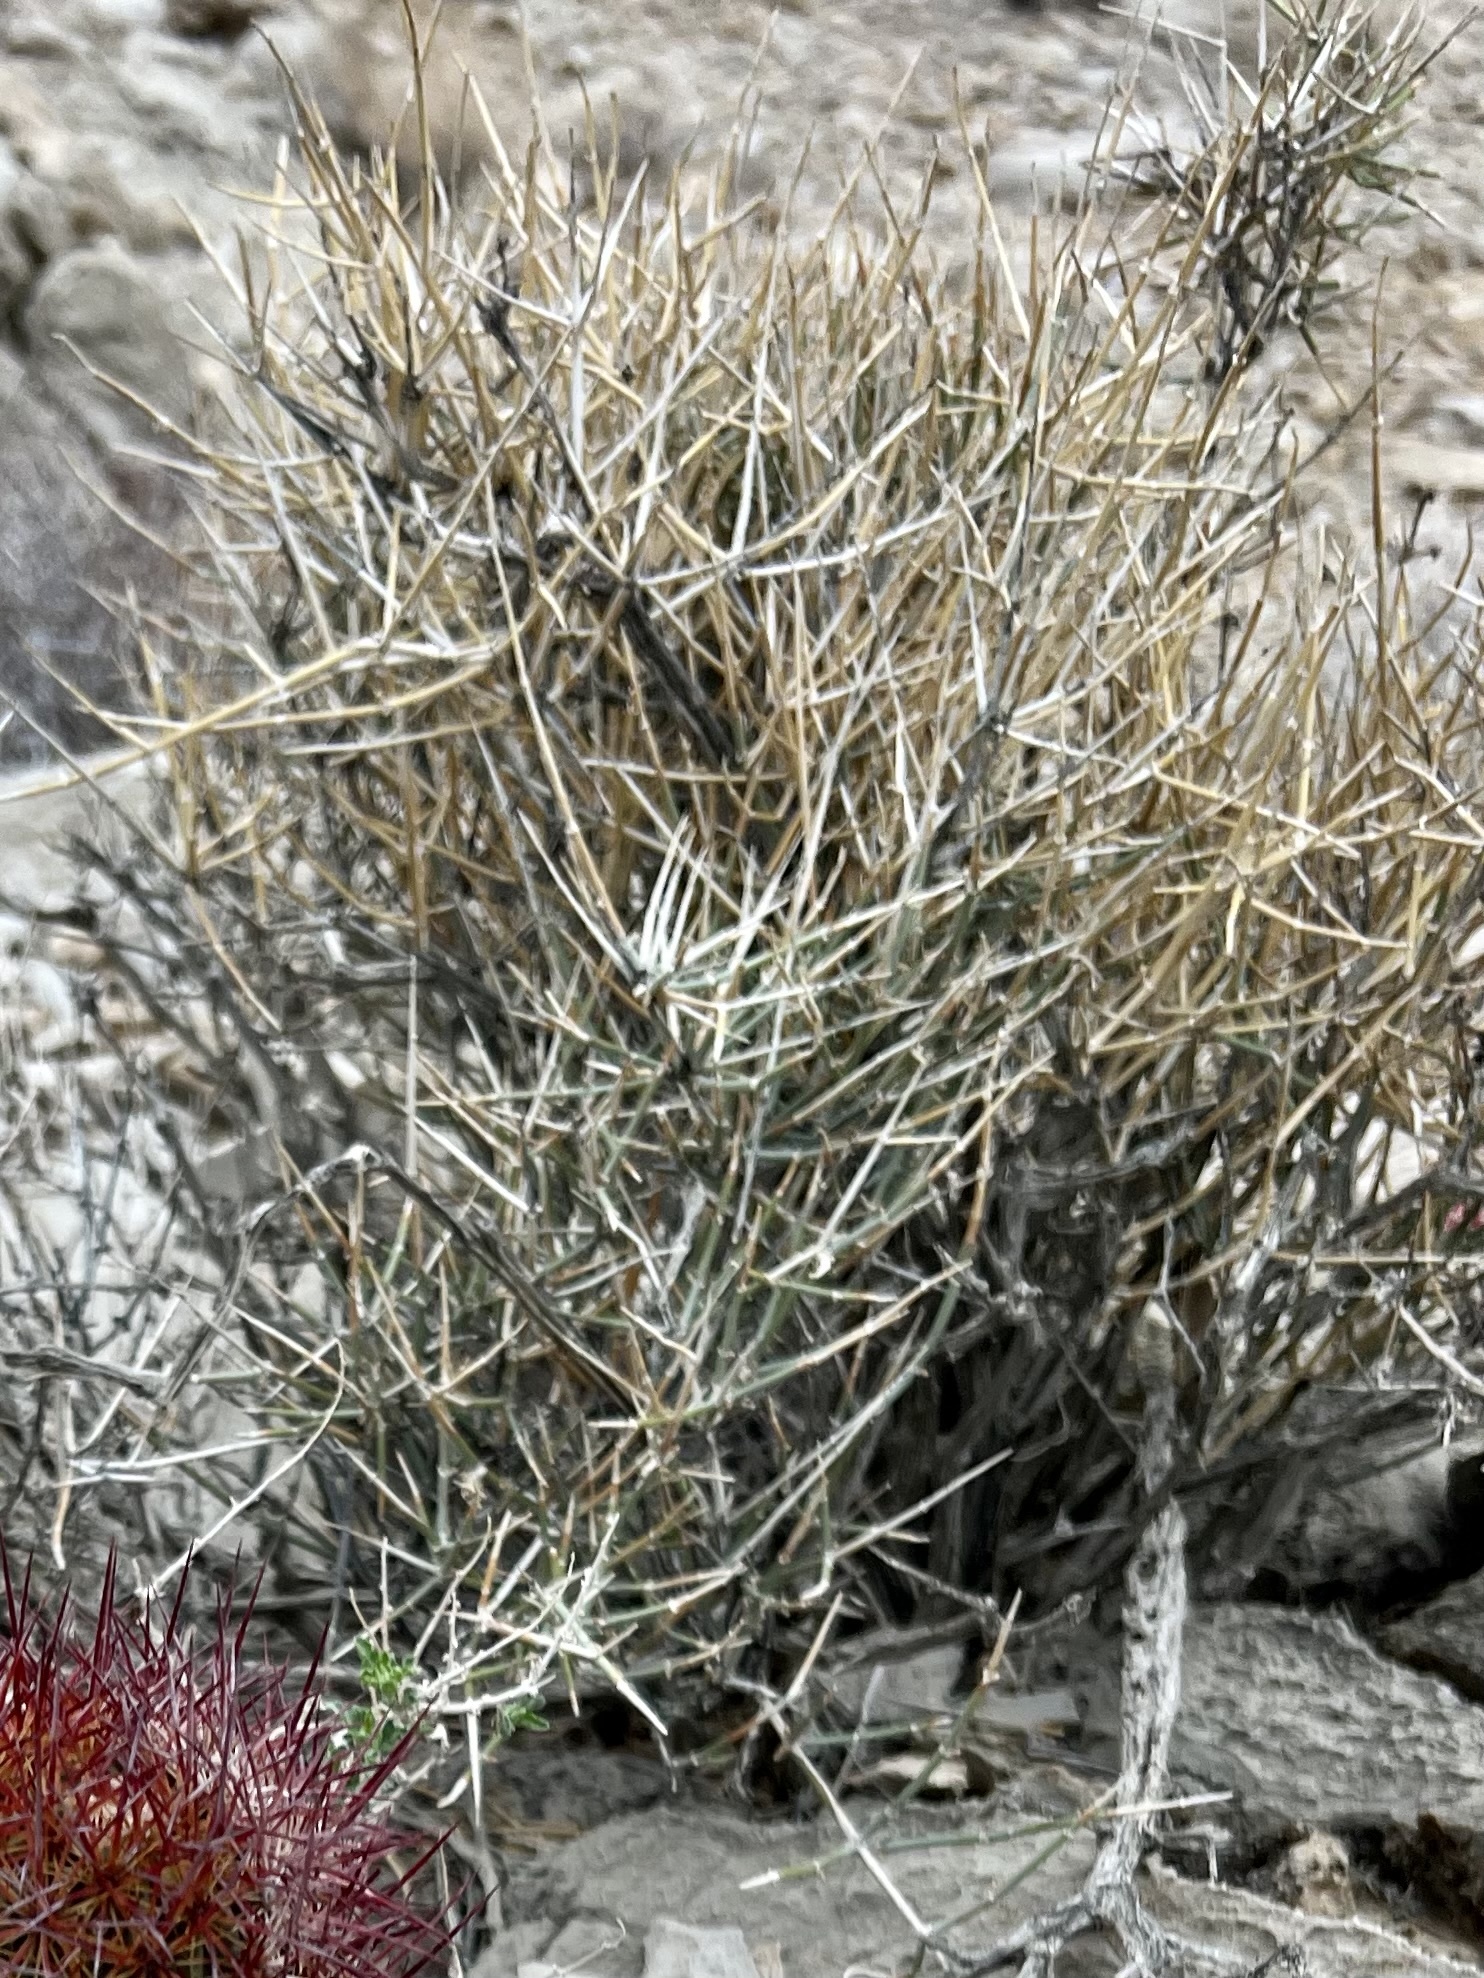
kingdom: Plantae
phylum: Tracheophyta
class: Gnetopsida
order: Ephedrales
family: Ephedraceae
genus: Ephedra
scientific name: Ephedra nevadensis
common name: Gray ephedra
